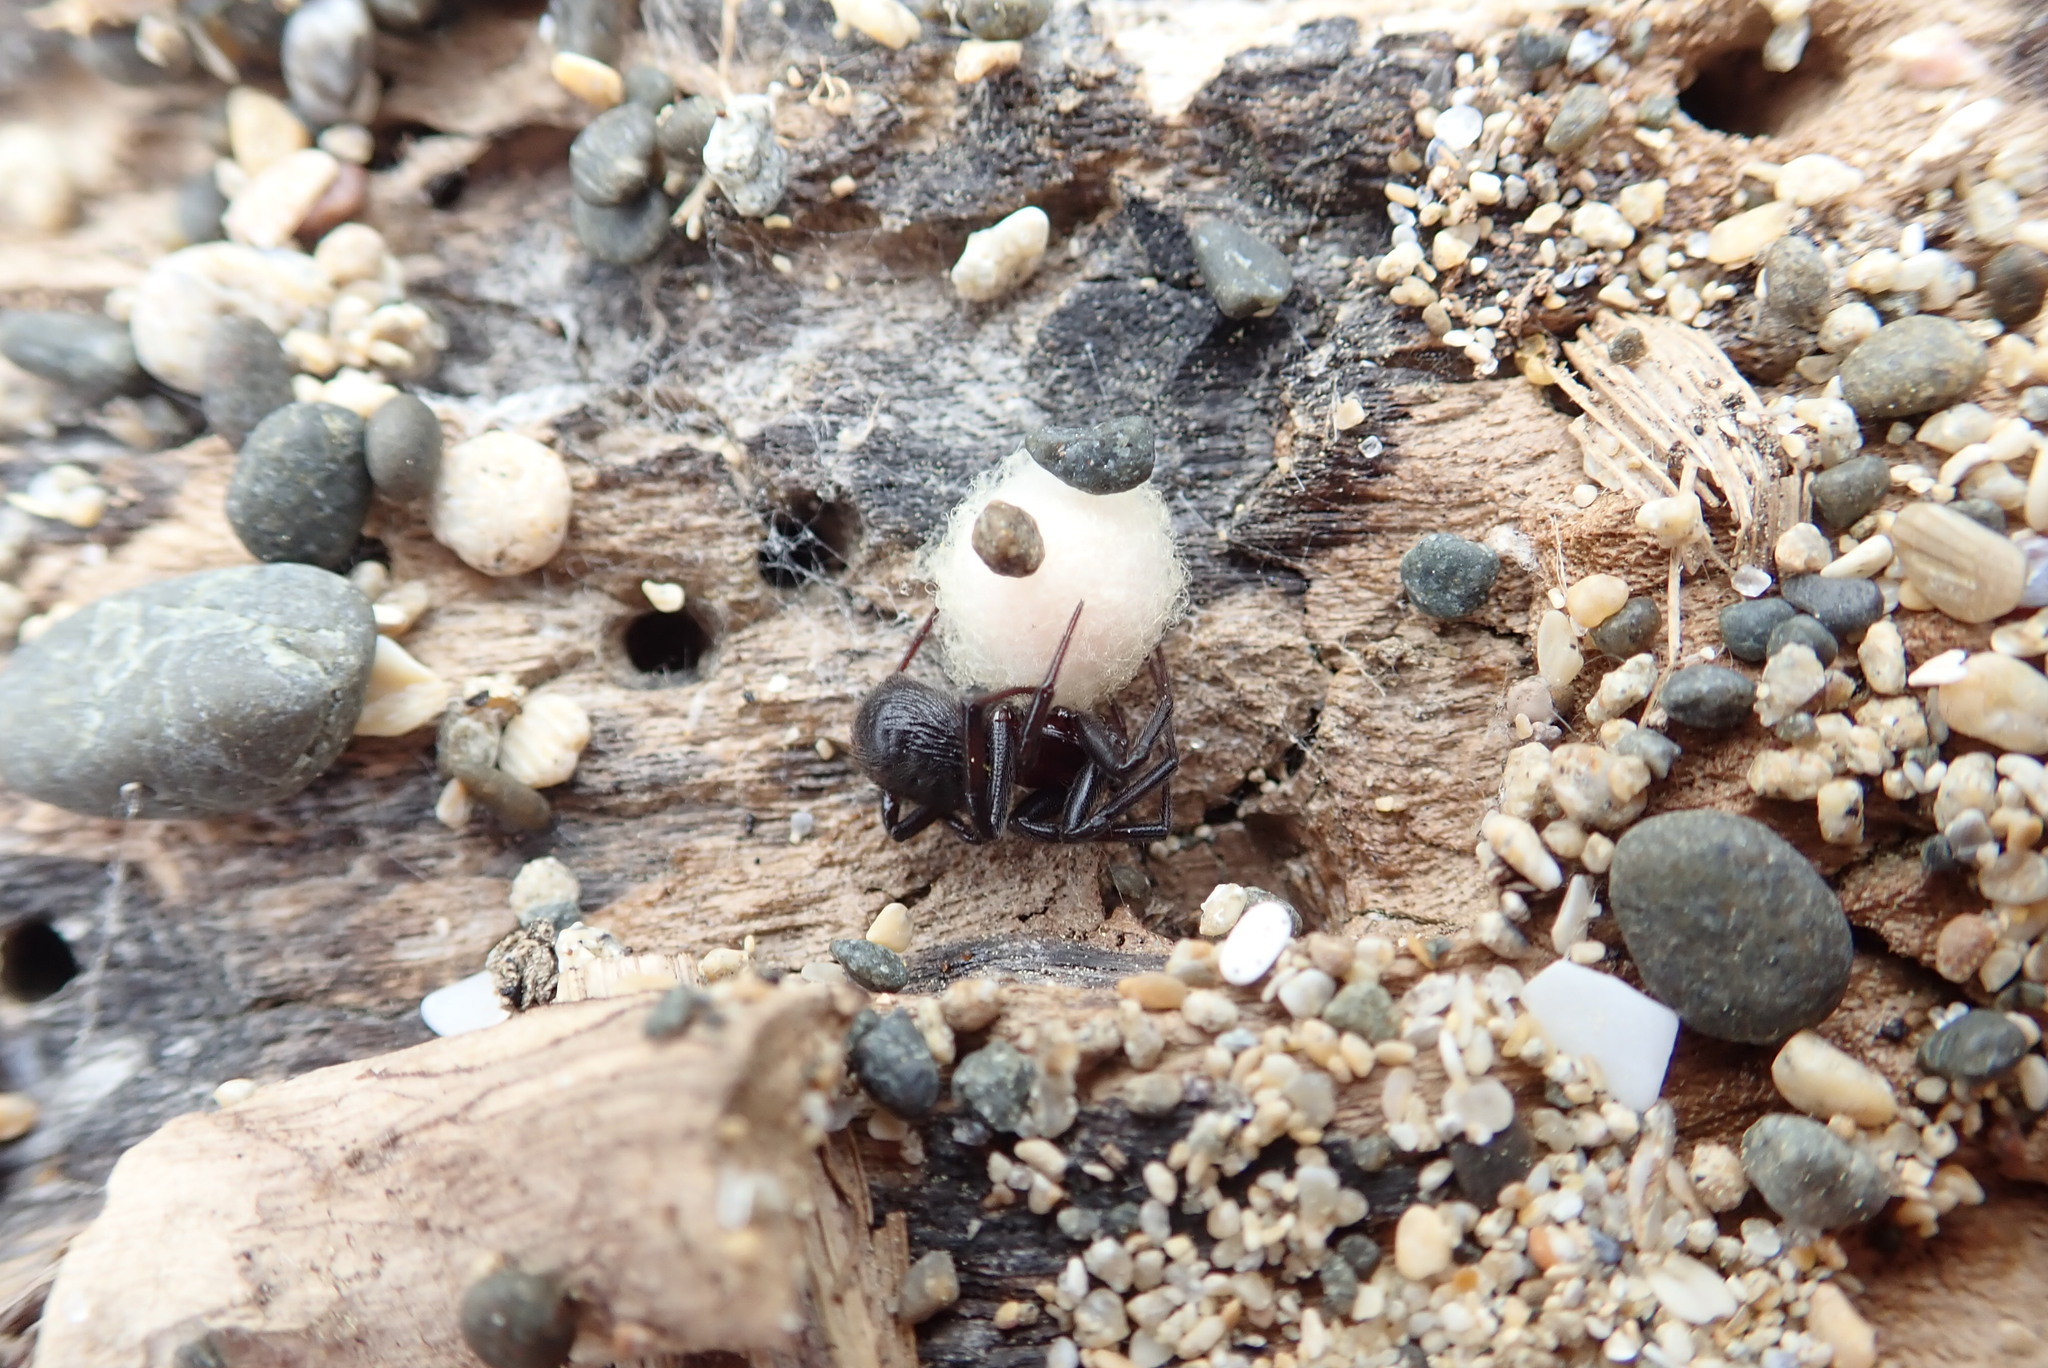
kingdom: Animalia
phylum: Arthropoda
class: Arachnida
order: Araneae
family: Theridiidae
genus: Steatoda
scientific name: Steatoda capensis
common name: Cobweb weaver
